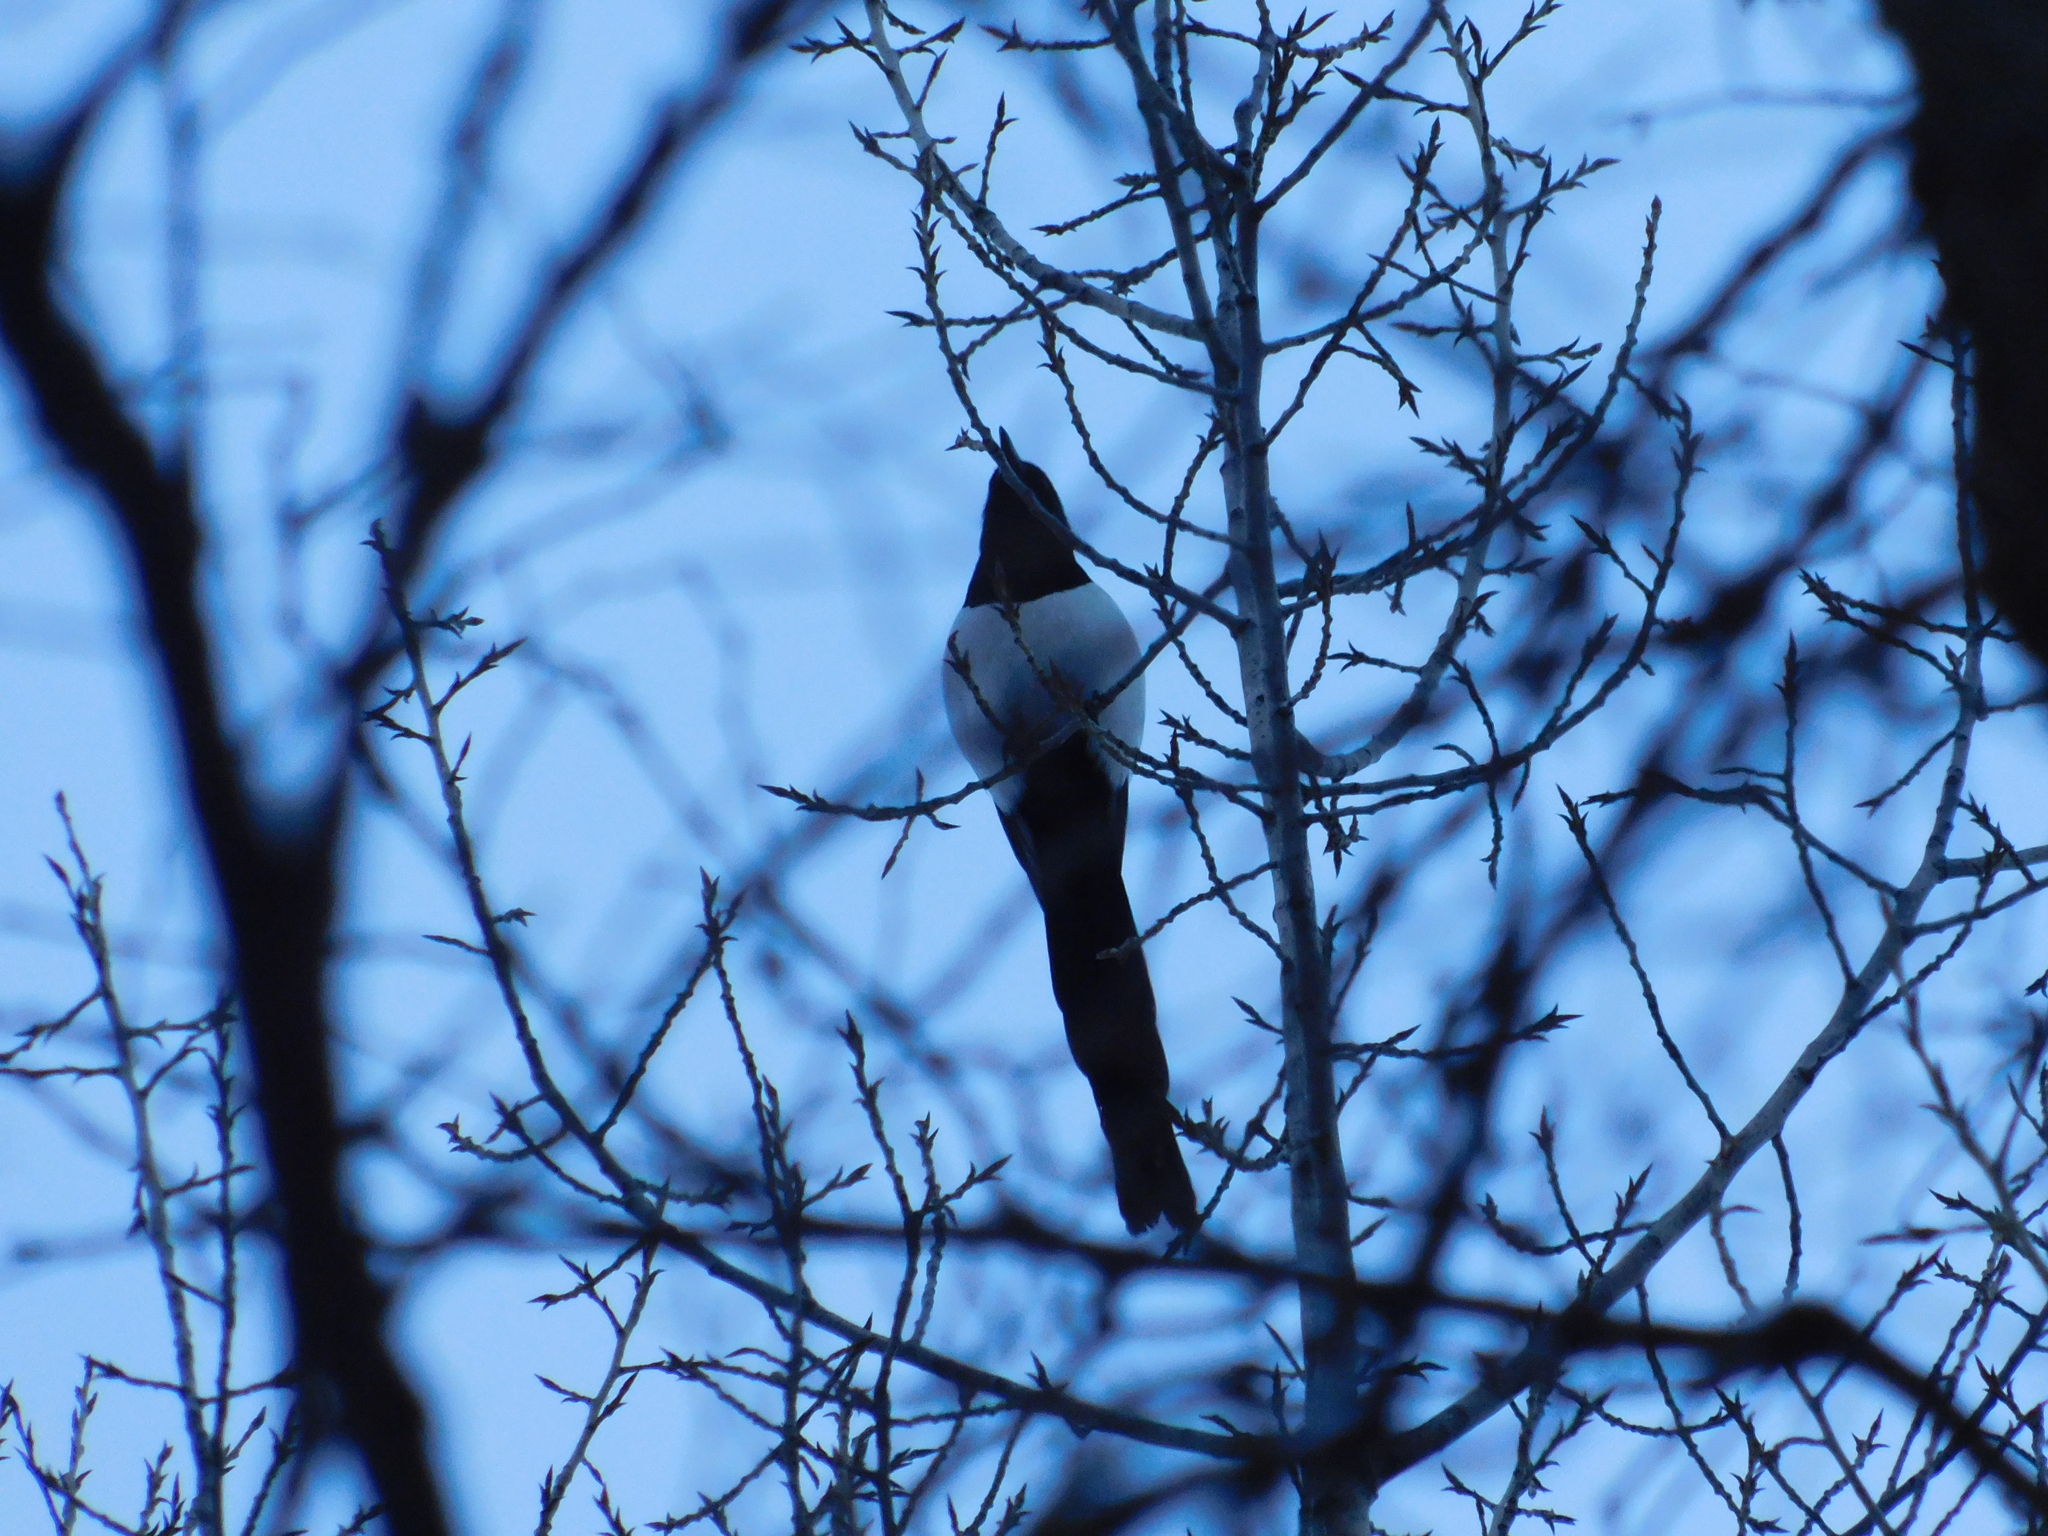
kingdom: Animalia
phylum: Chordata
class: Aves
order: Passeriformes
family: Corvidae
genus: Pica
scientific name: Pica pica
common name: Eurasian magpie
